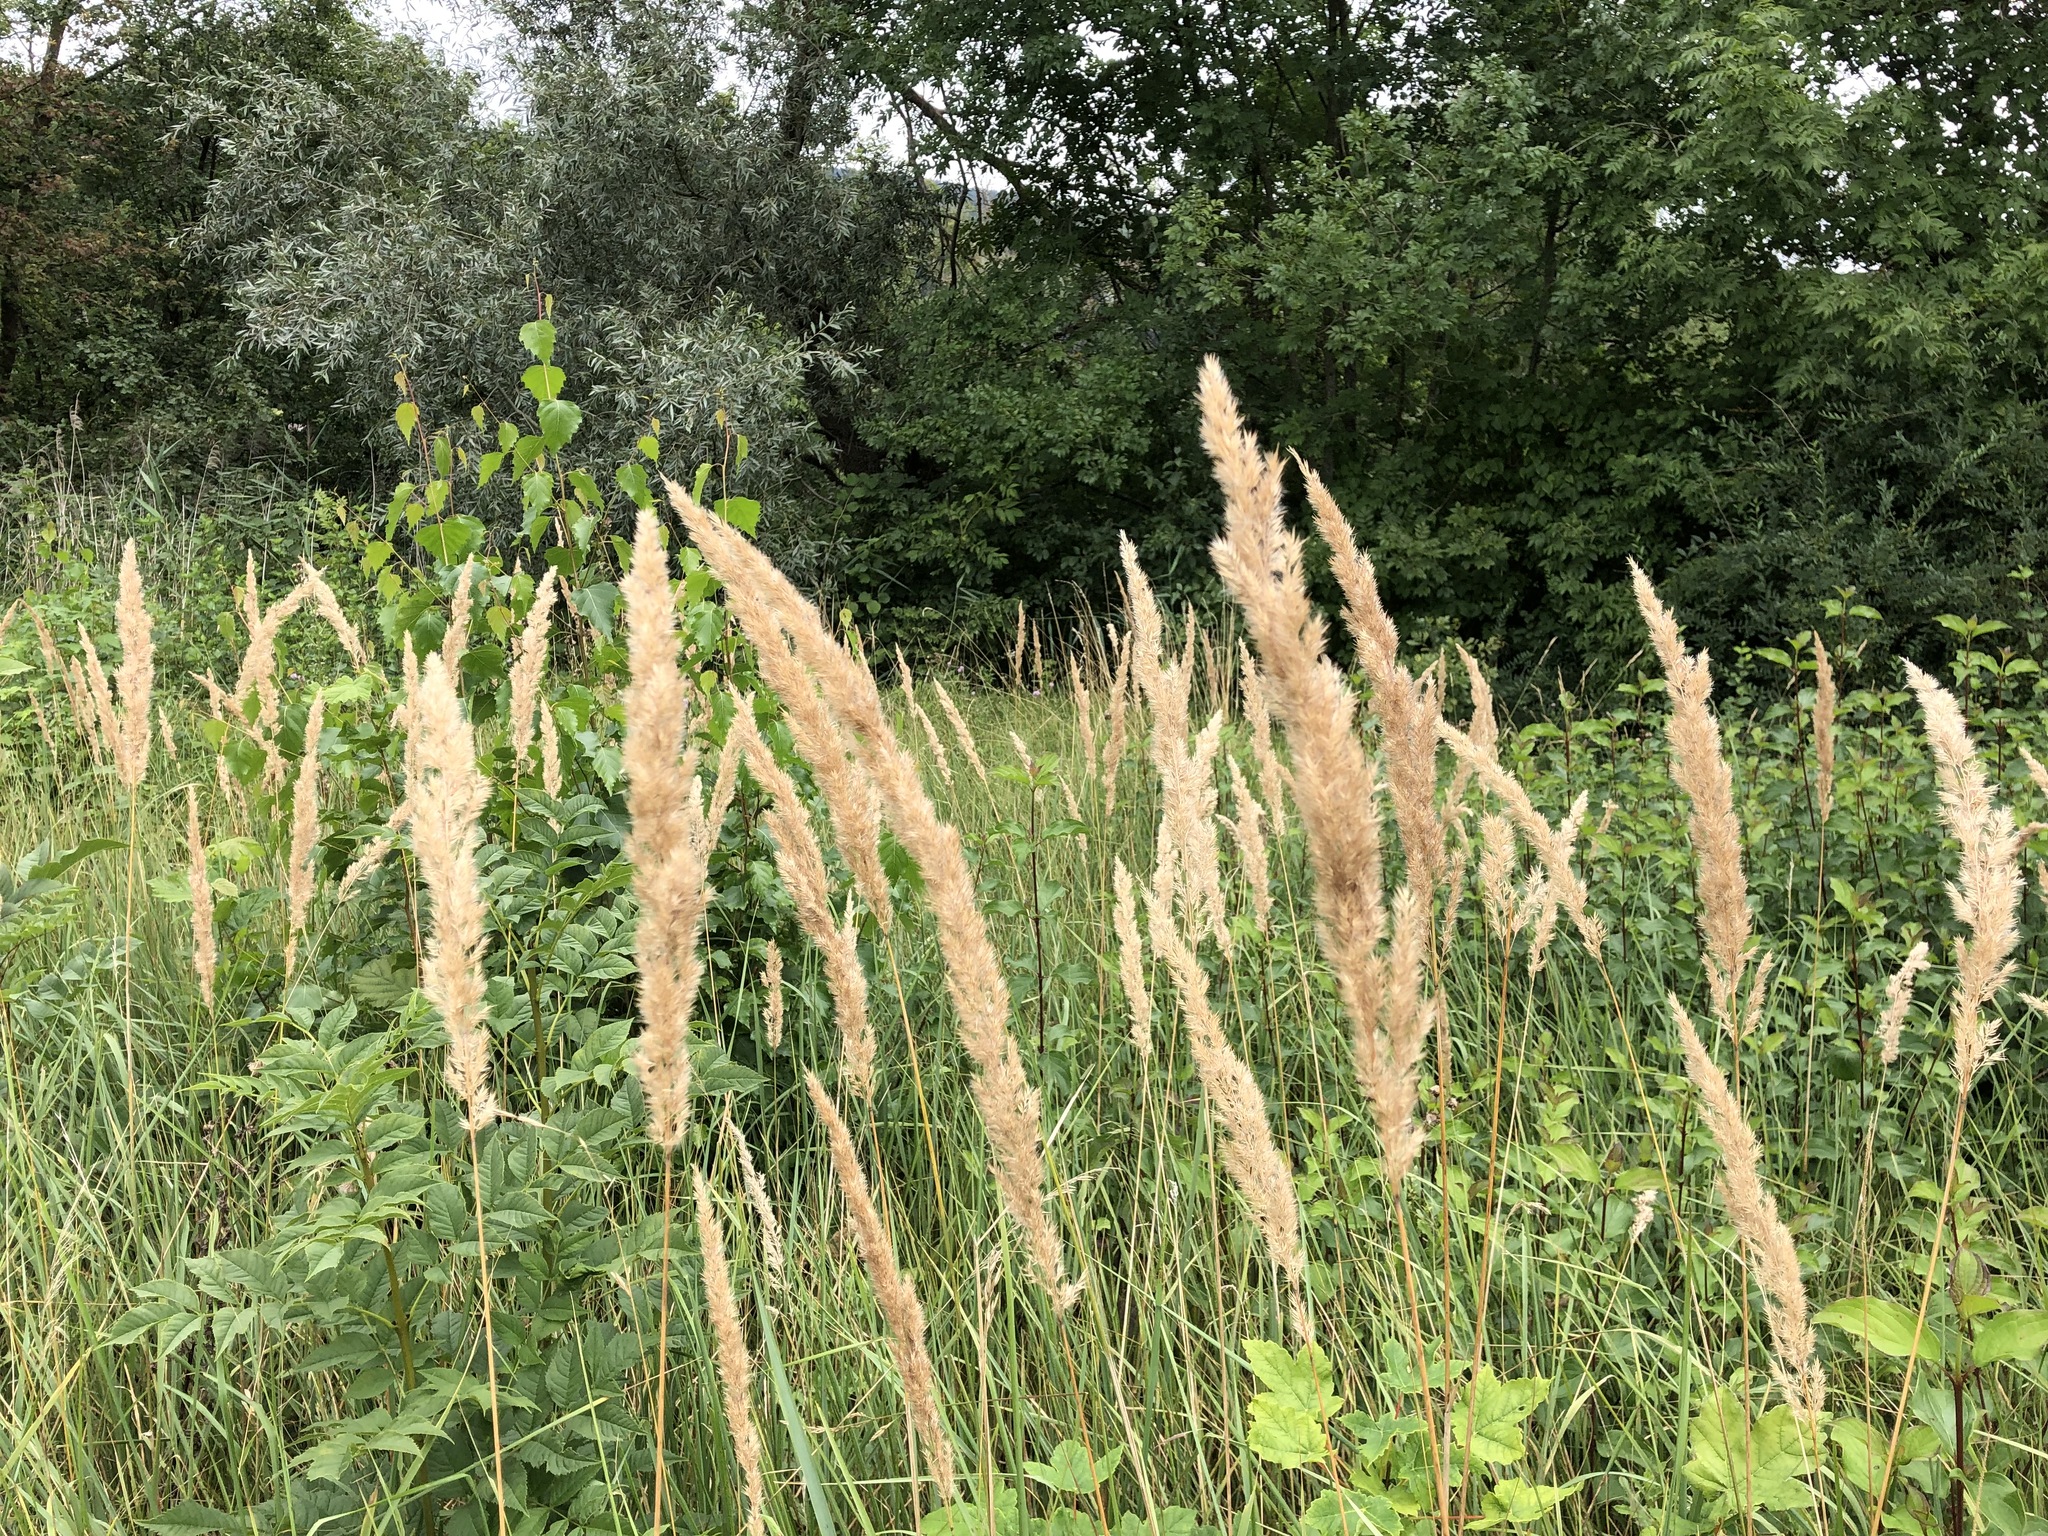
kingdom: Plantae
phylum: Tracheophyta
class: Liliopsida
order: Poales
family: Poaceae
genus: Calamagrostis
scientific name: Calamagrostis epigejos
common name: Wood small-reed
